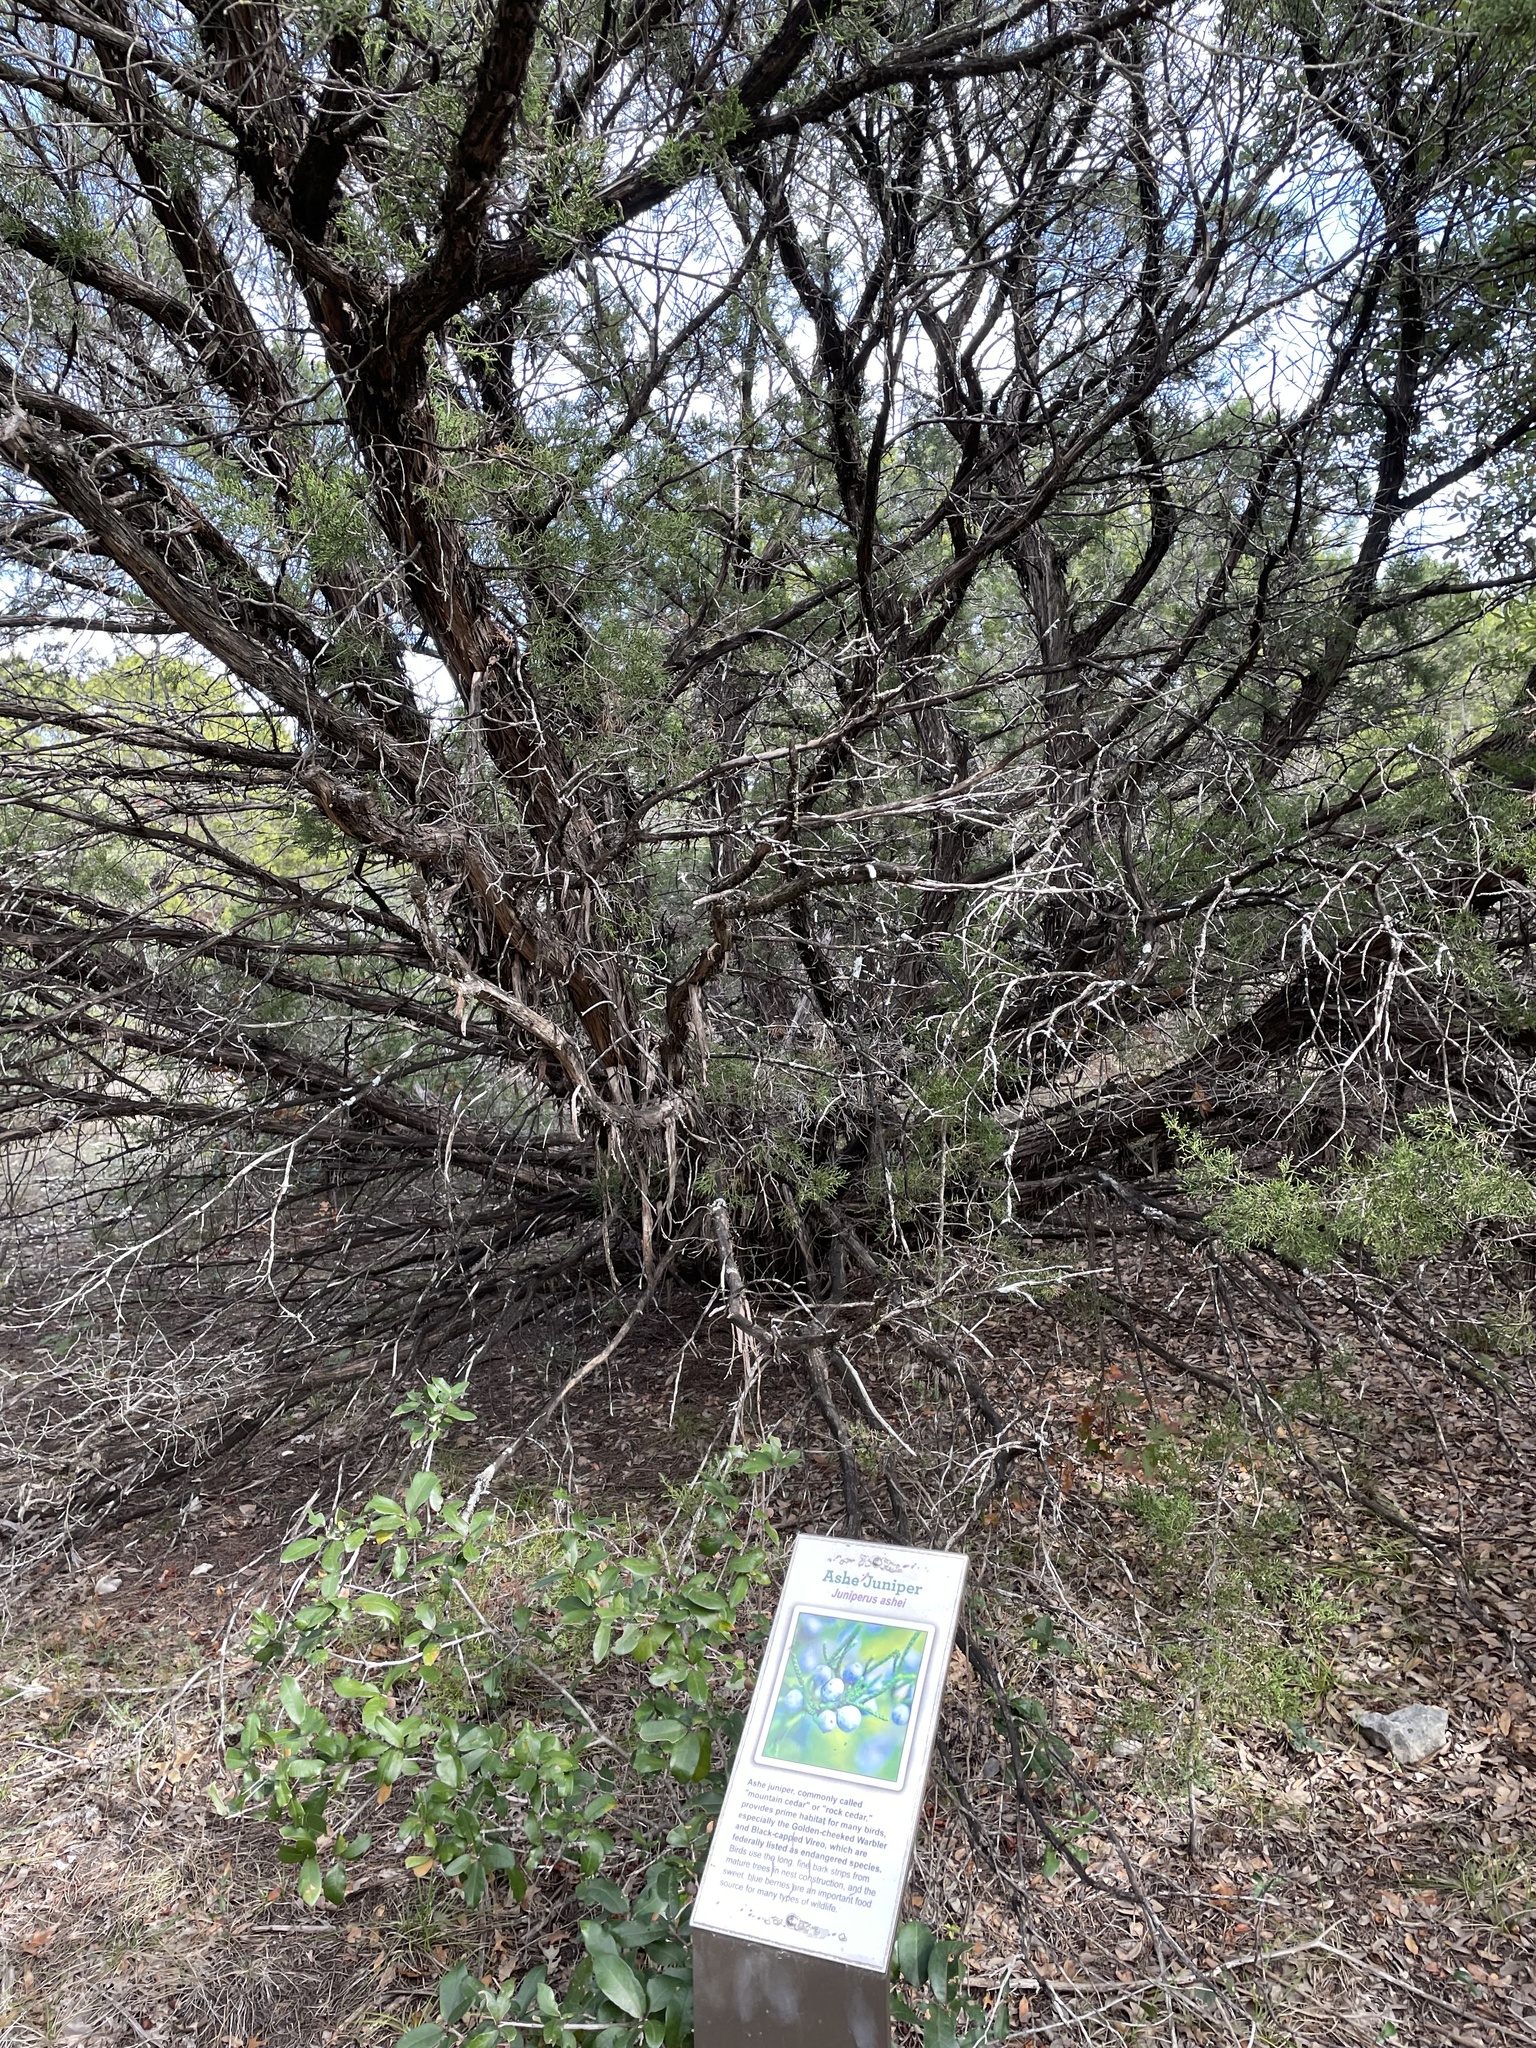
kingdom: Plantae
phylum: Tracheophyta
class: Pinopsida
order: Pinales
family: Cupressaceae
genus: Juniperus
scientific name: Juniperus ashei
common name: Mexican juniper
